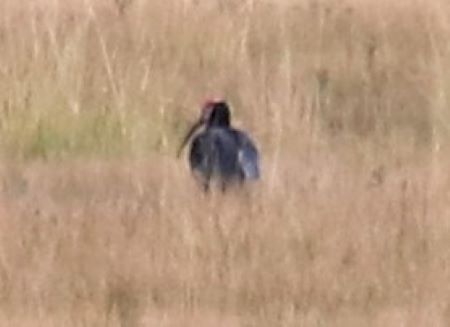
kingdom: Animalia
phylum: Chordata
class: Aves
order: Pelecaniformes
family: Threskiornithidae
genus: Geronticus
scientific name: Geronticus calvus
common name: Southern bald ibis
